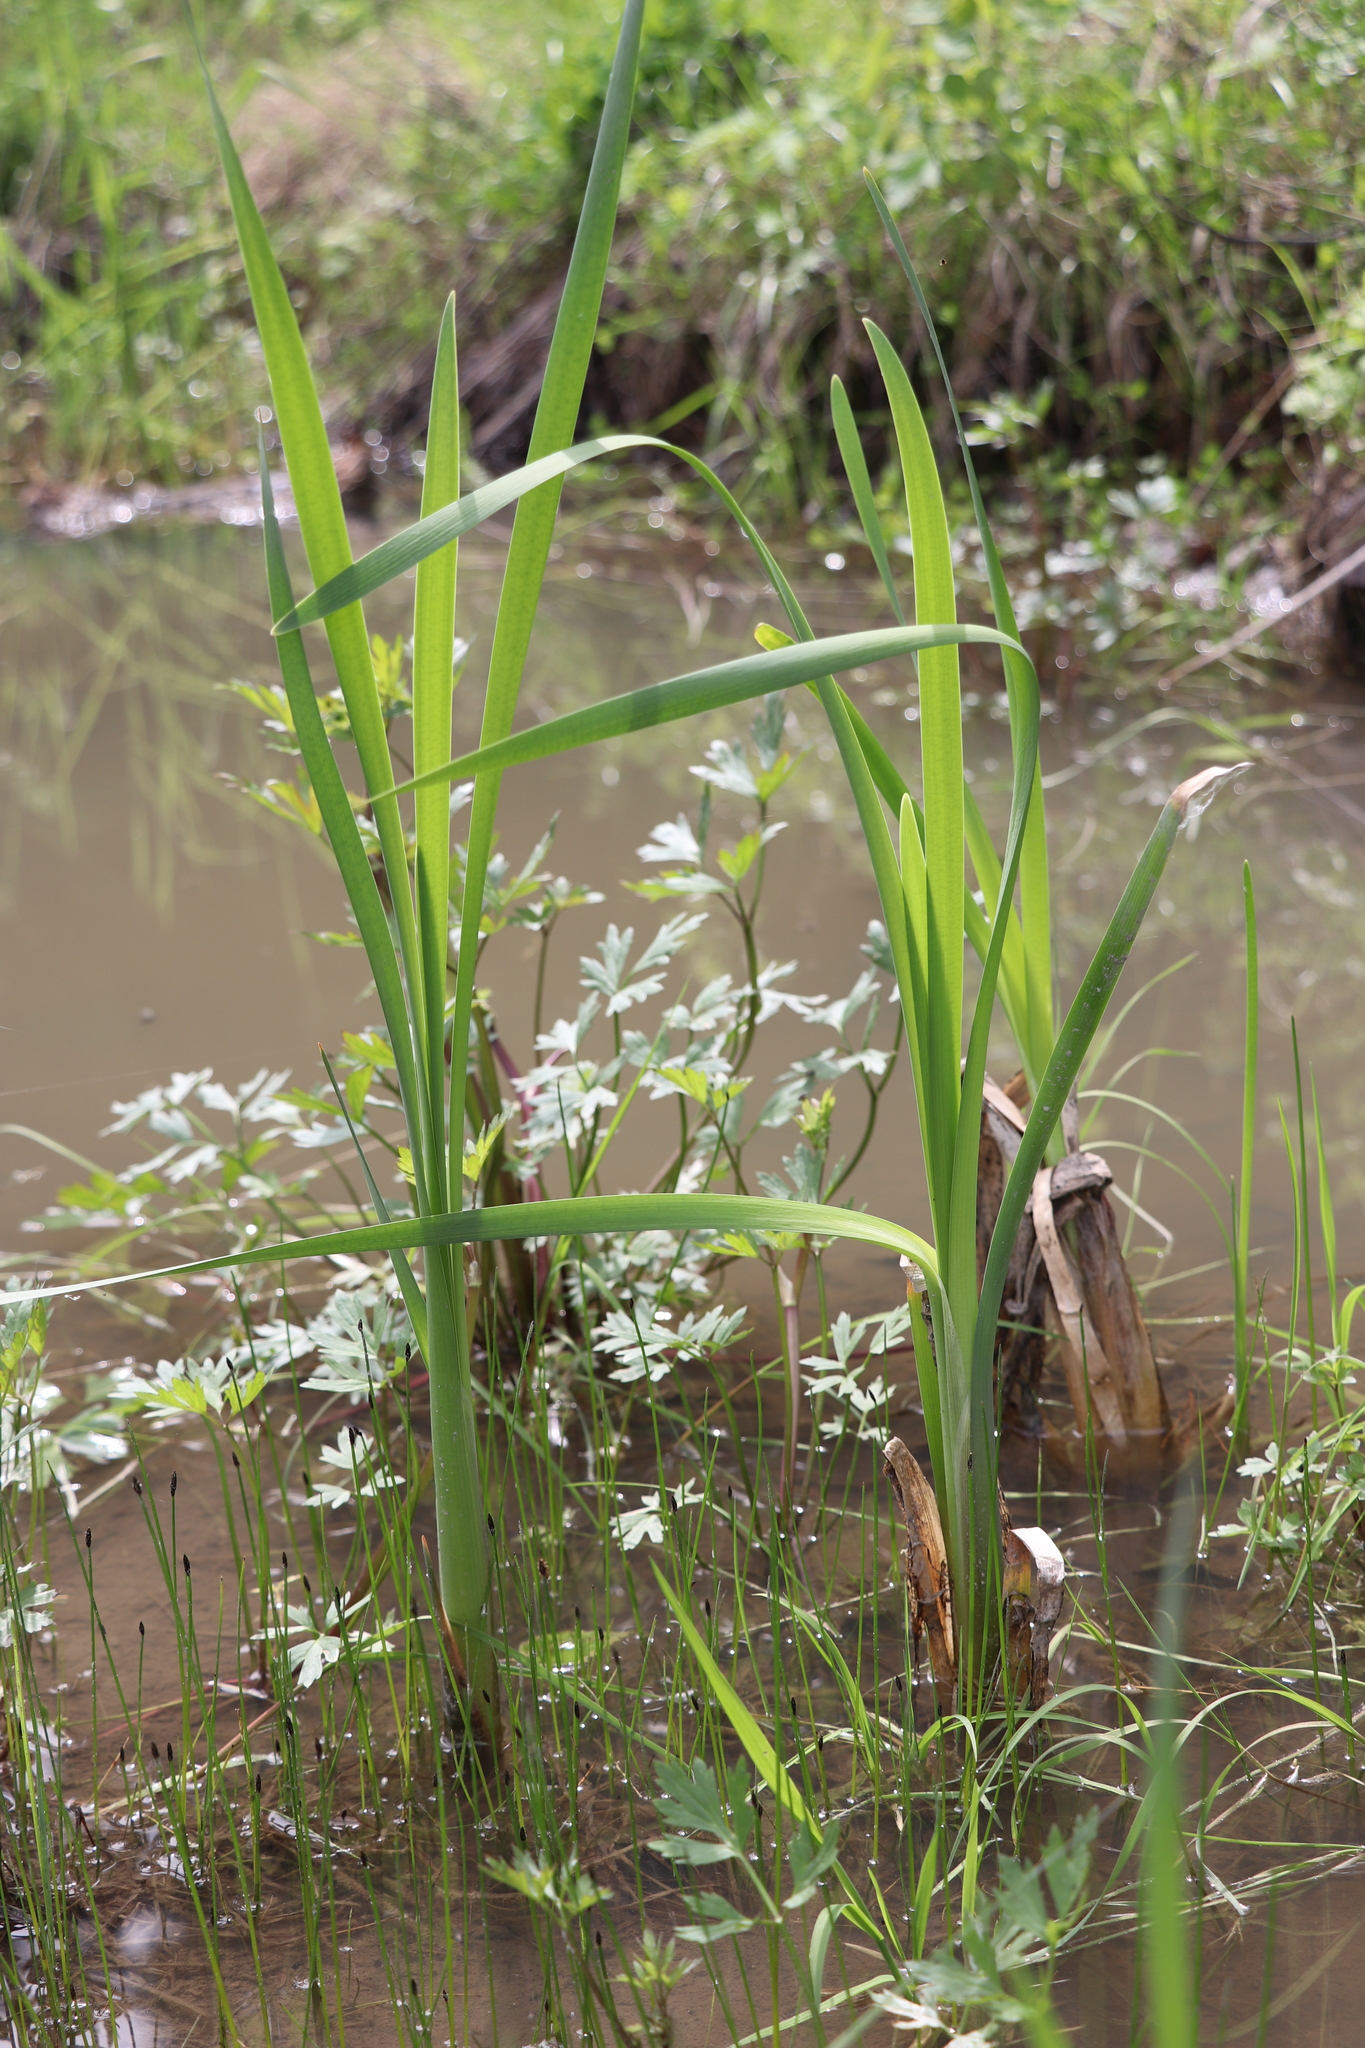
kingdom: Plantae
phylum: Tracheophyta
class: Liliopsida
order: Poales
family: Typhaceae
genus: Typha
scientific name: Typha latifolia
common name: Broadleaf cattail
